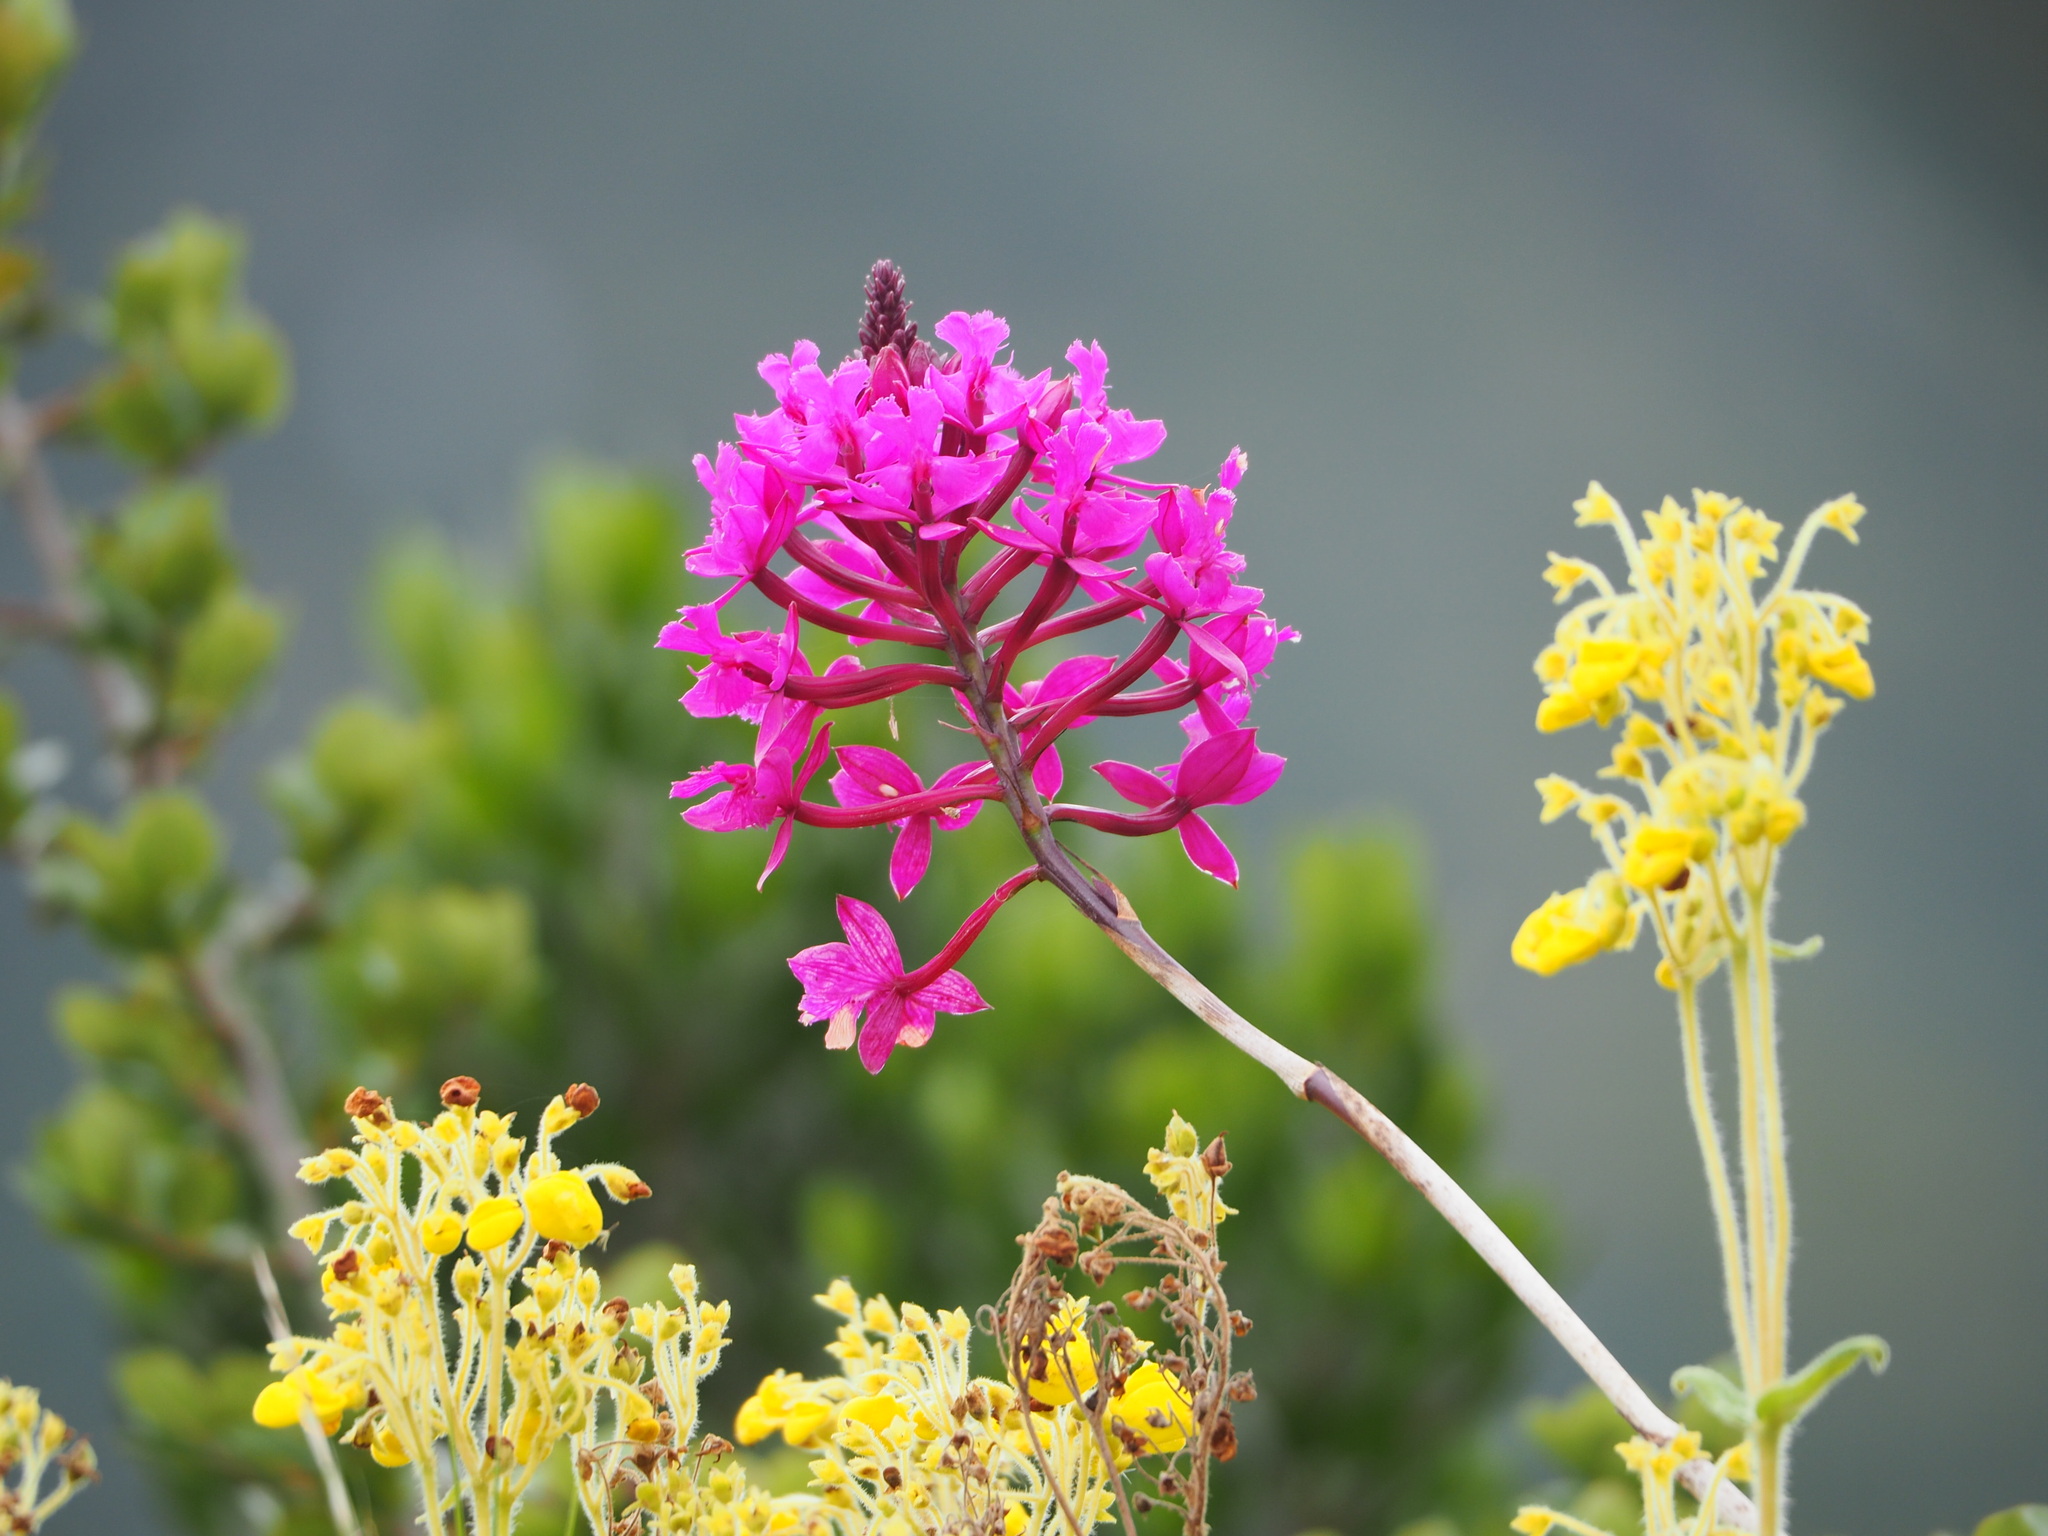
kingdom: Plantae
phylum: Tracheophyta
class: Liliopsida
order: Asparagales
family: Orchidaceae
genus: Epidendrum
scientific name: Epidendrum jamiesonis
